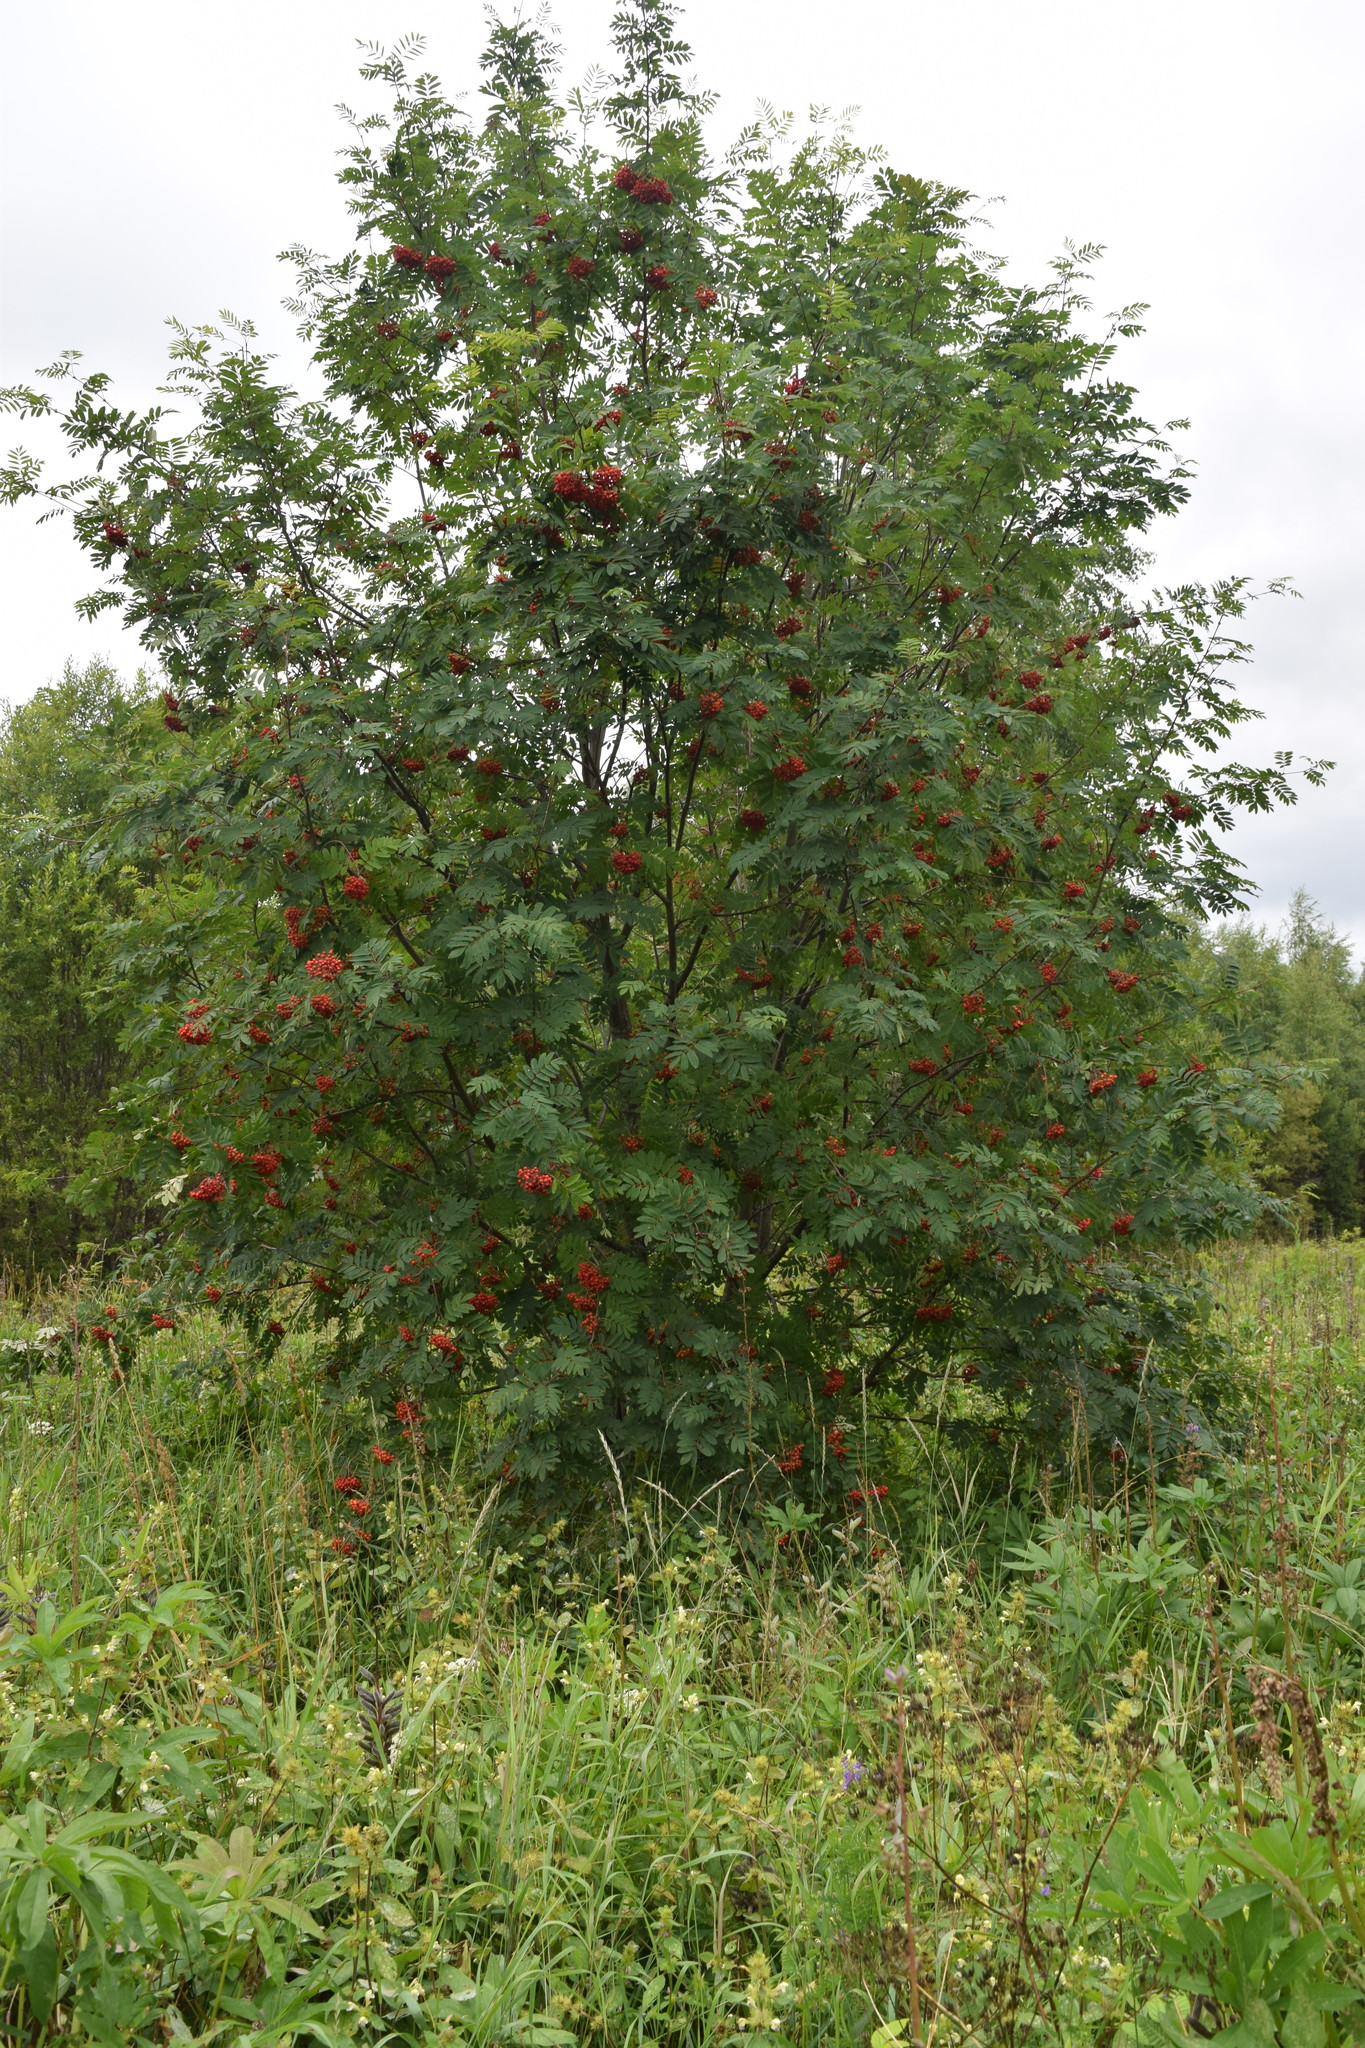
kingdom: Plantae
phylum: Tracheophyta
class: Magnoliopsida
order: Rosales
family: Rosaceae
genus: Sorbus
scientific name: Sorbus aucuparia
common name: Rowan
